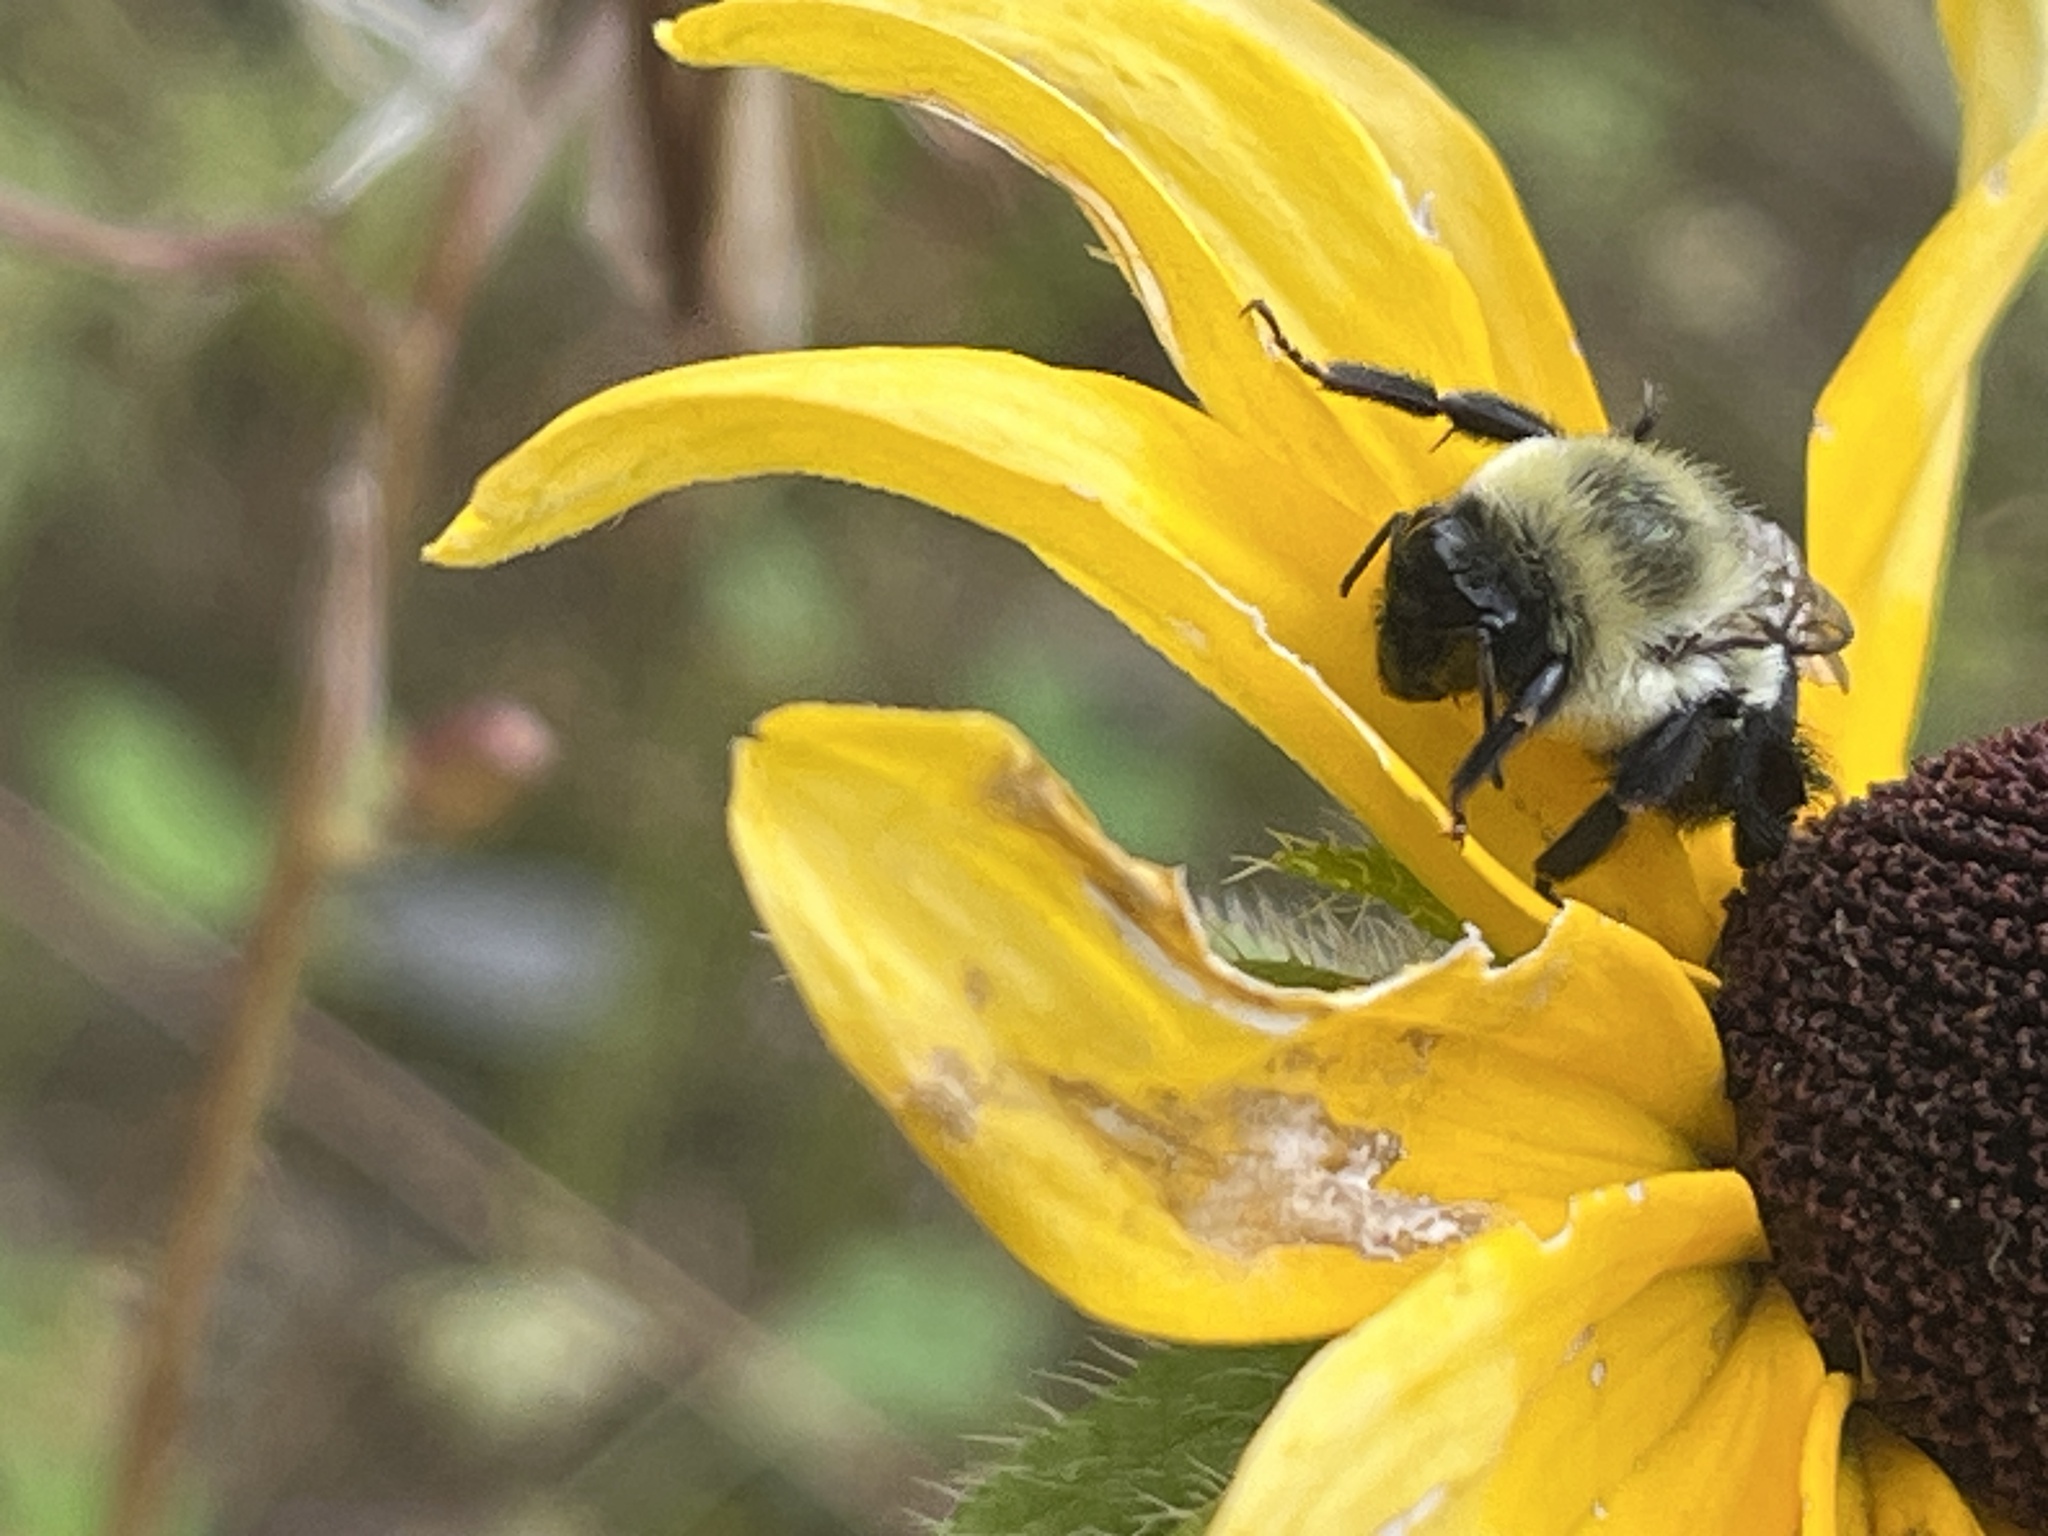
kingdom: Animalia
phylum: Arthropoda
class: Insecta
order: Hymenoptera
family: Apidae
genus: Bombus
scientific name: Bombus impatiens
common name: Common eastern bumble bee
